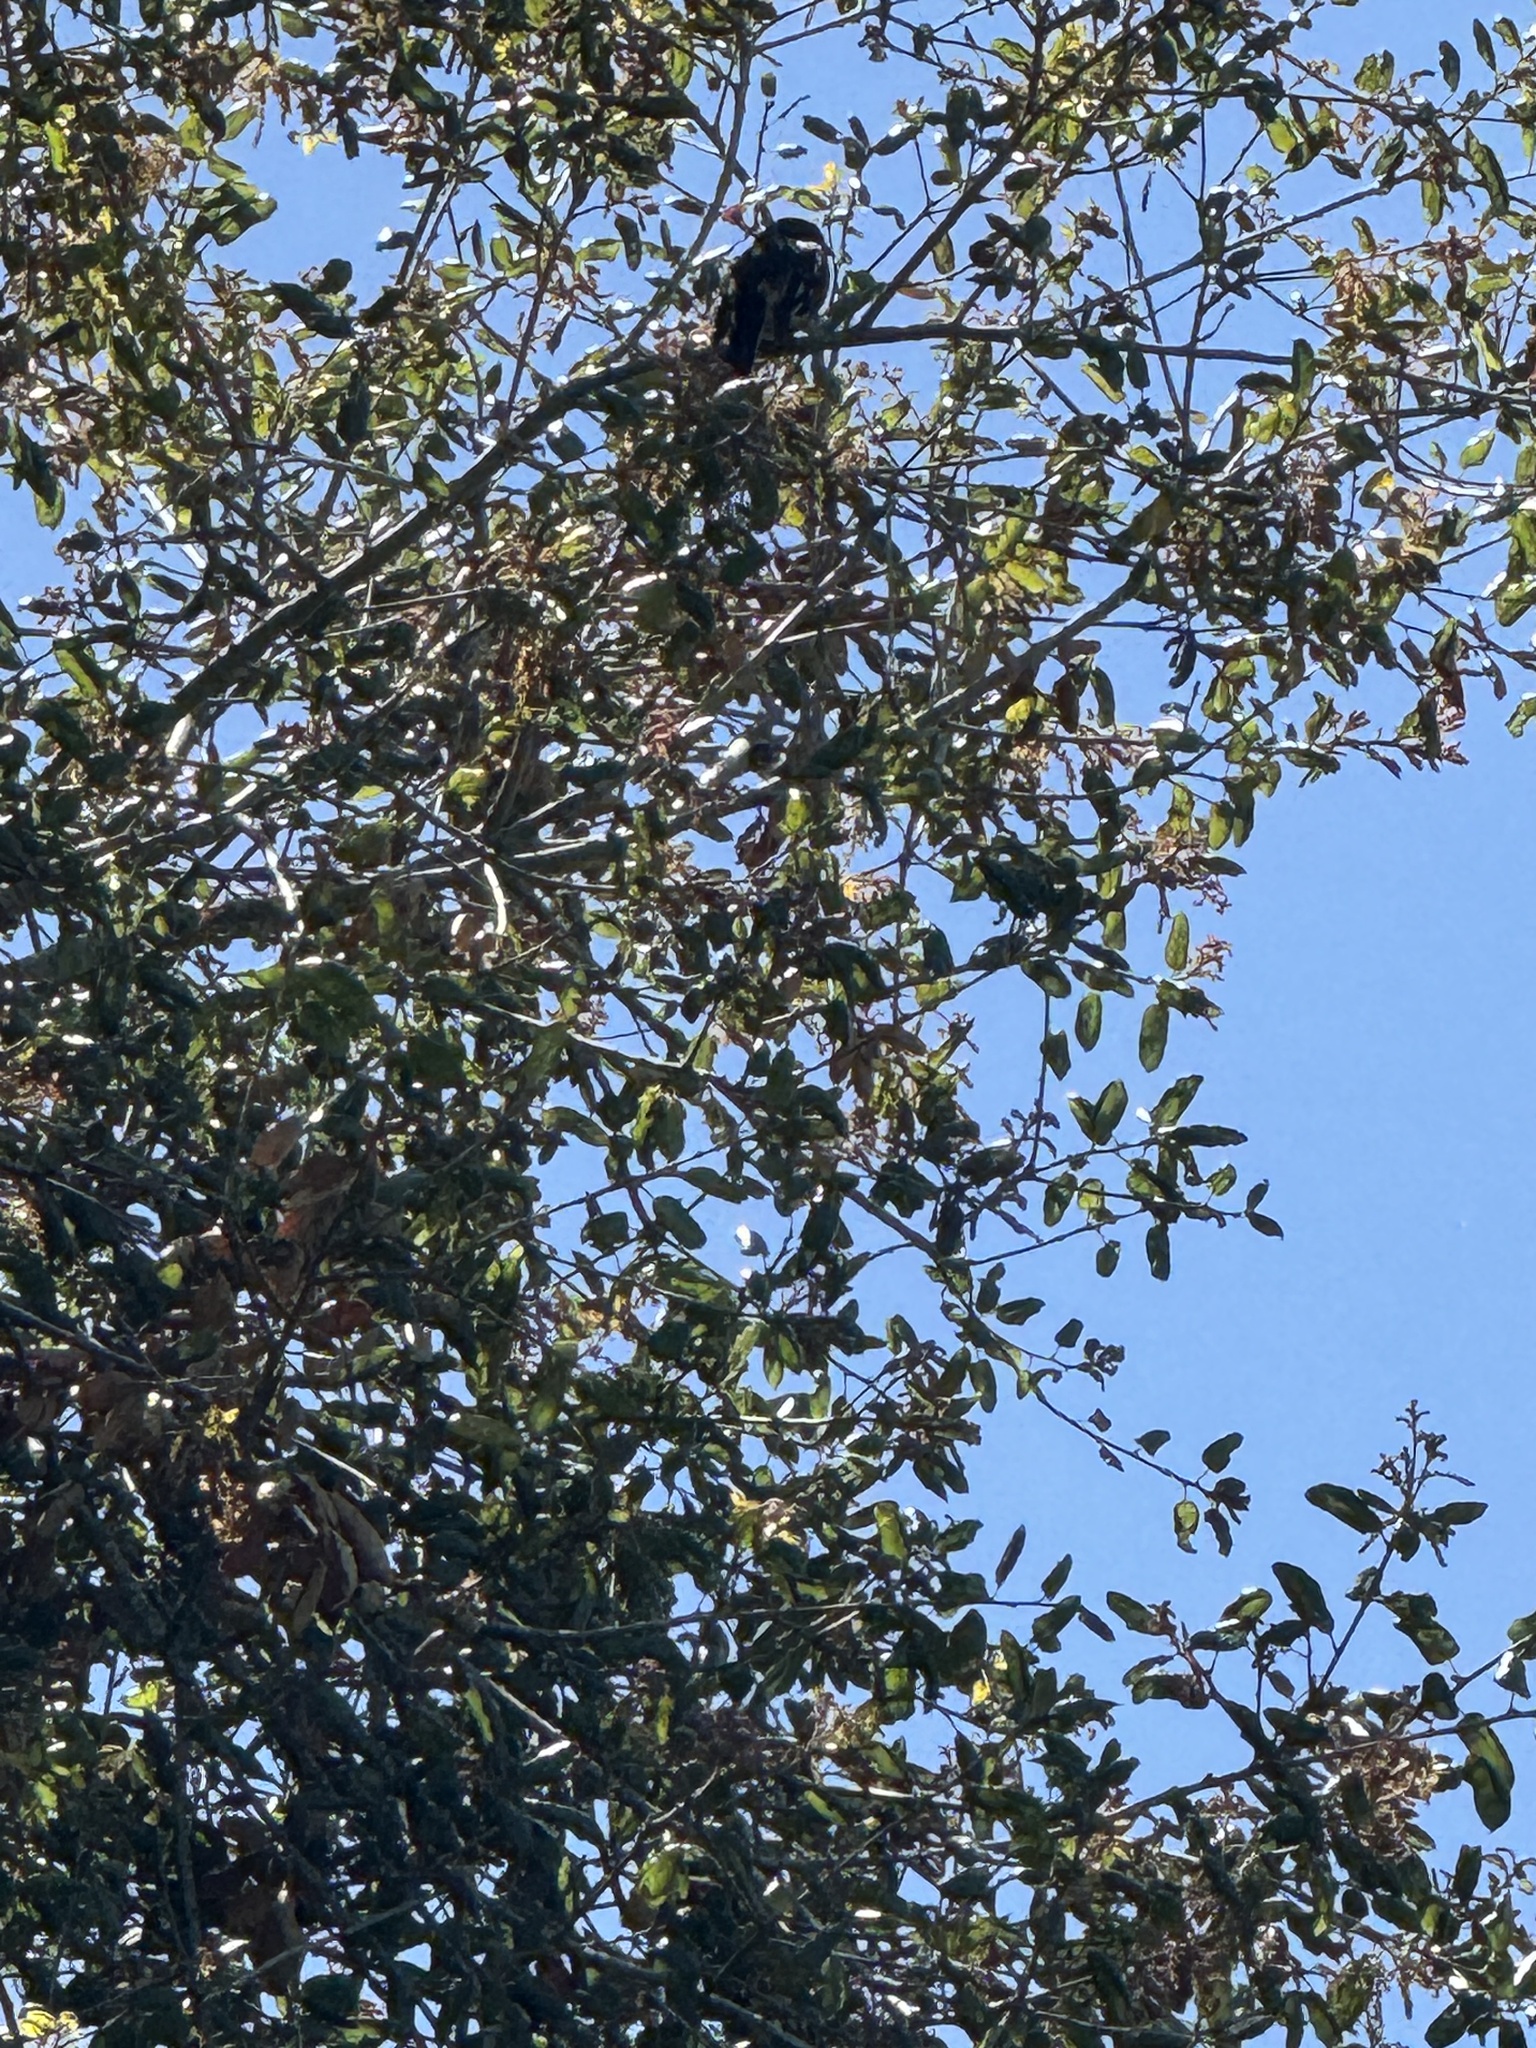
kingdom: Animalia
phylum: Chordata
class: Aves
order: Passeriformes
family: Passerellidae
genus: Pipilo
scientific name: Pipilo maculatus
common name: Spotted towhee
